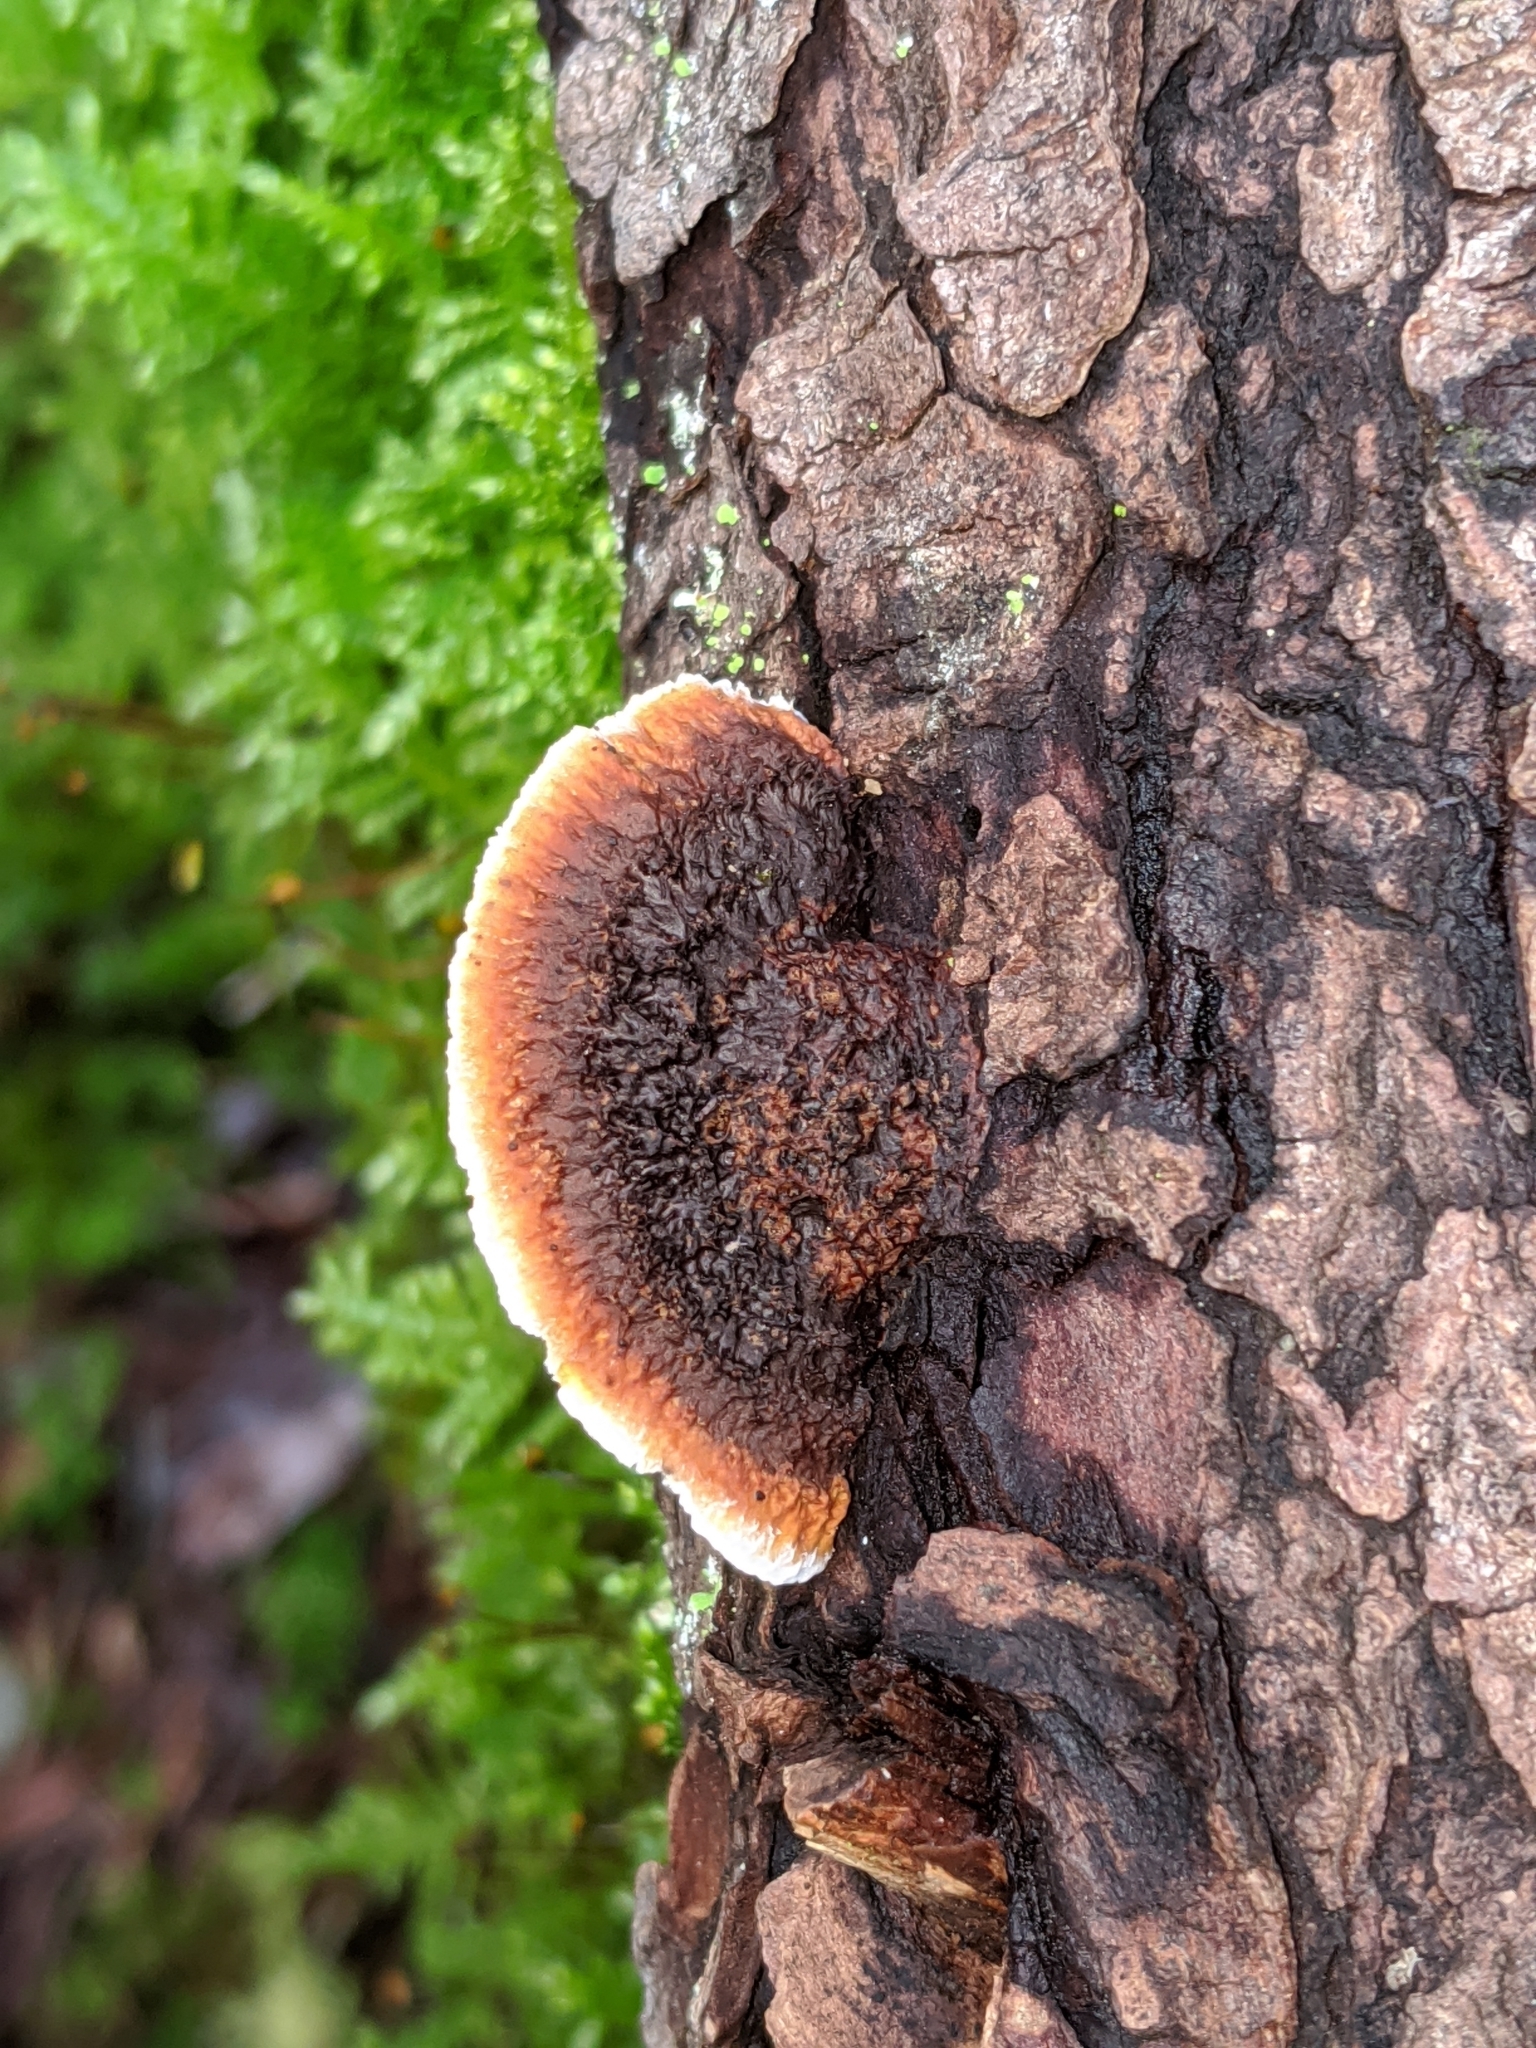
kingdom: Fungi
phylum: Basidiomycota
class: Agaricomycetes
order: Gloeophyllales
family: Gloeophyllaceae
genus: Gloeophyllum
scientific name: Gloeophyllum sepiarium
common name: Conifer mazegill
